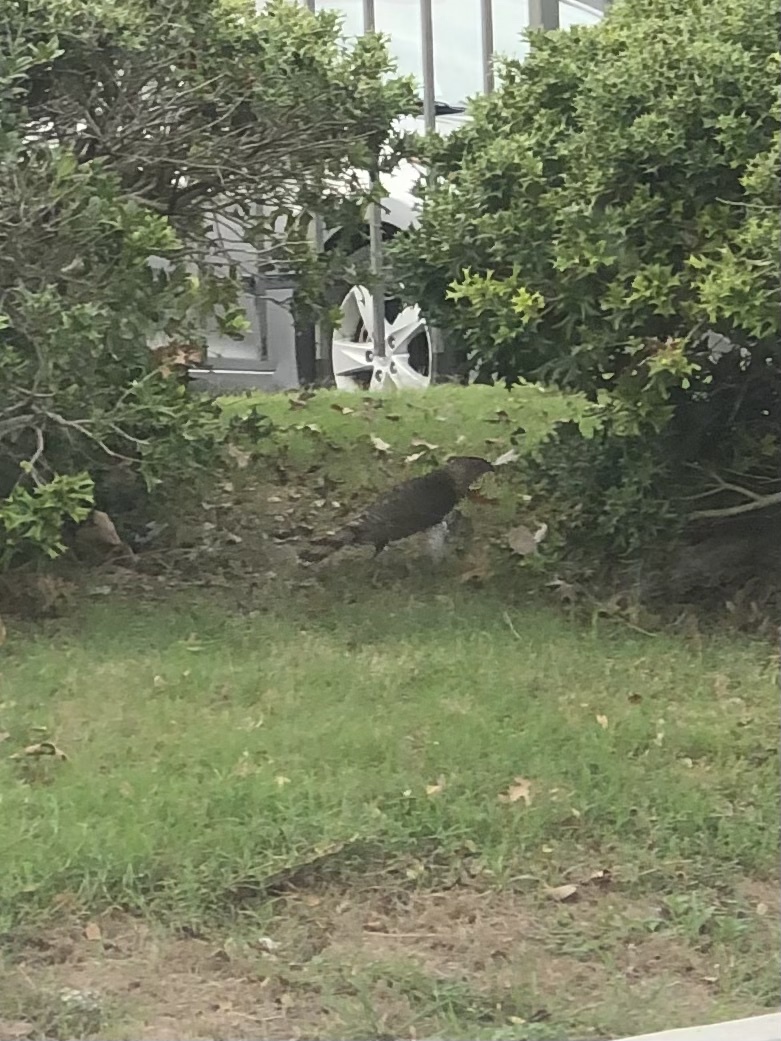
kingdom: Animalia
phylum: Chordata
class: Aves
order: Accipitriformes
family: Accipitridae
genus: Accipiter
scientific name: Accipiter cooperii
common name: Cooper's hawk
